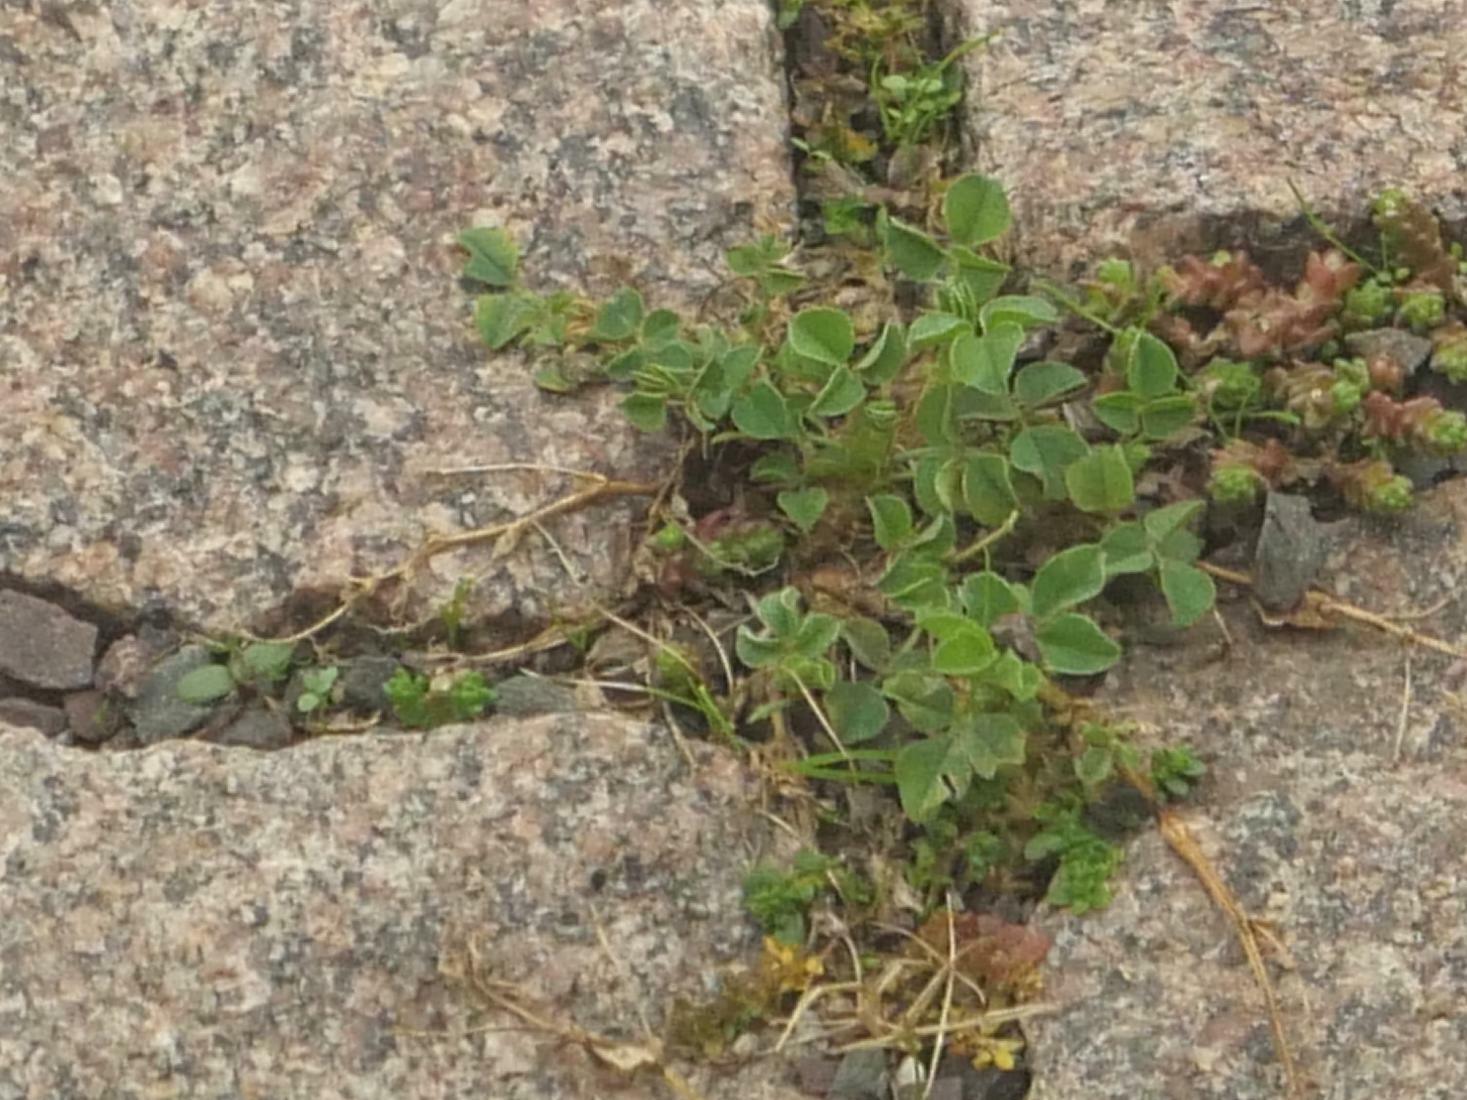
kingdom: Plantae
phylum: Tracheophyta
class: Magnoliopsida
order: Fabales
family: Fabaceae
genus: Medicago
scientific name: Medicago lupulina
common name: Black medick
